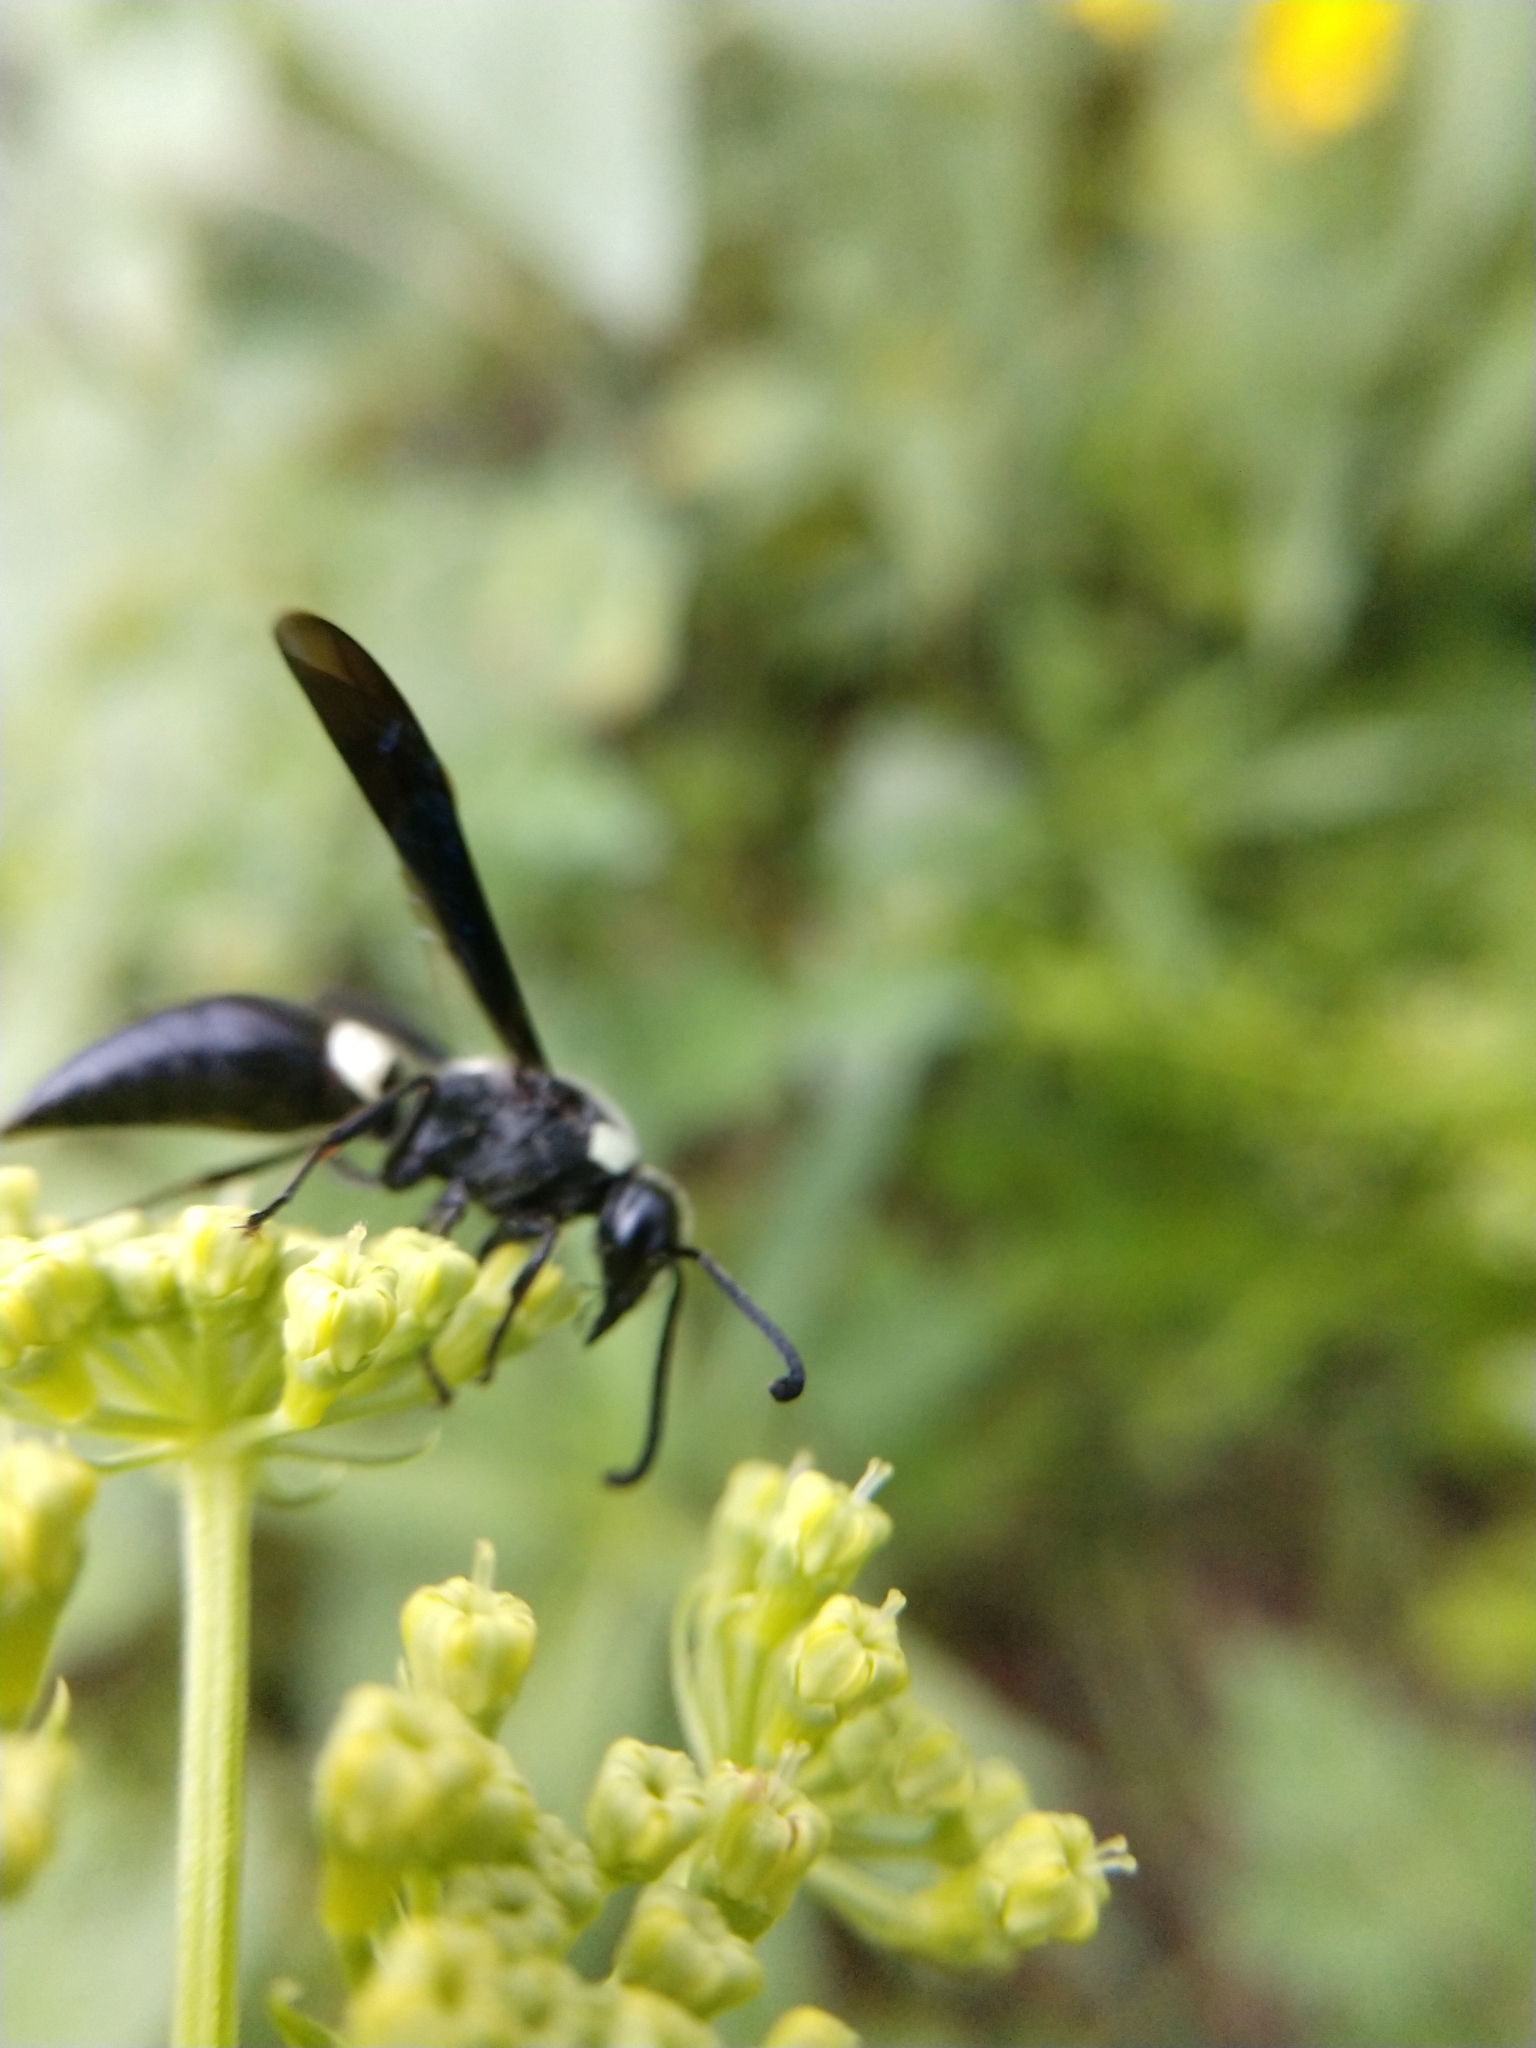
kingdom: Animalia
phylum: Arthropoda
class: Insecta
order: Hymenoptera
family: Eumenidae
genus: Monobia
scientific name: Monobia quadridens
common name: Four-toothed mason wasp
